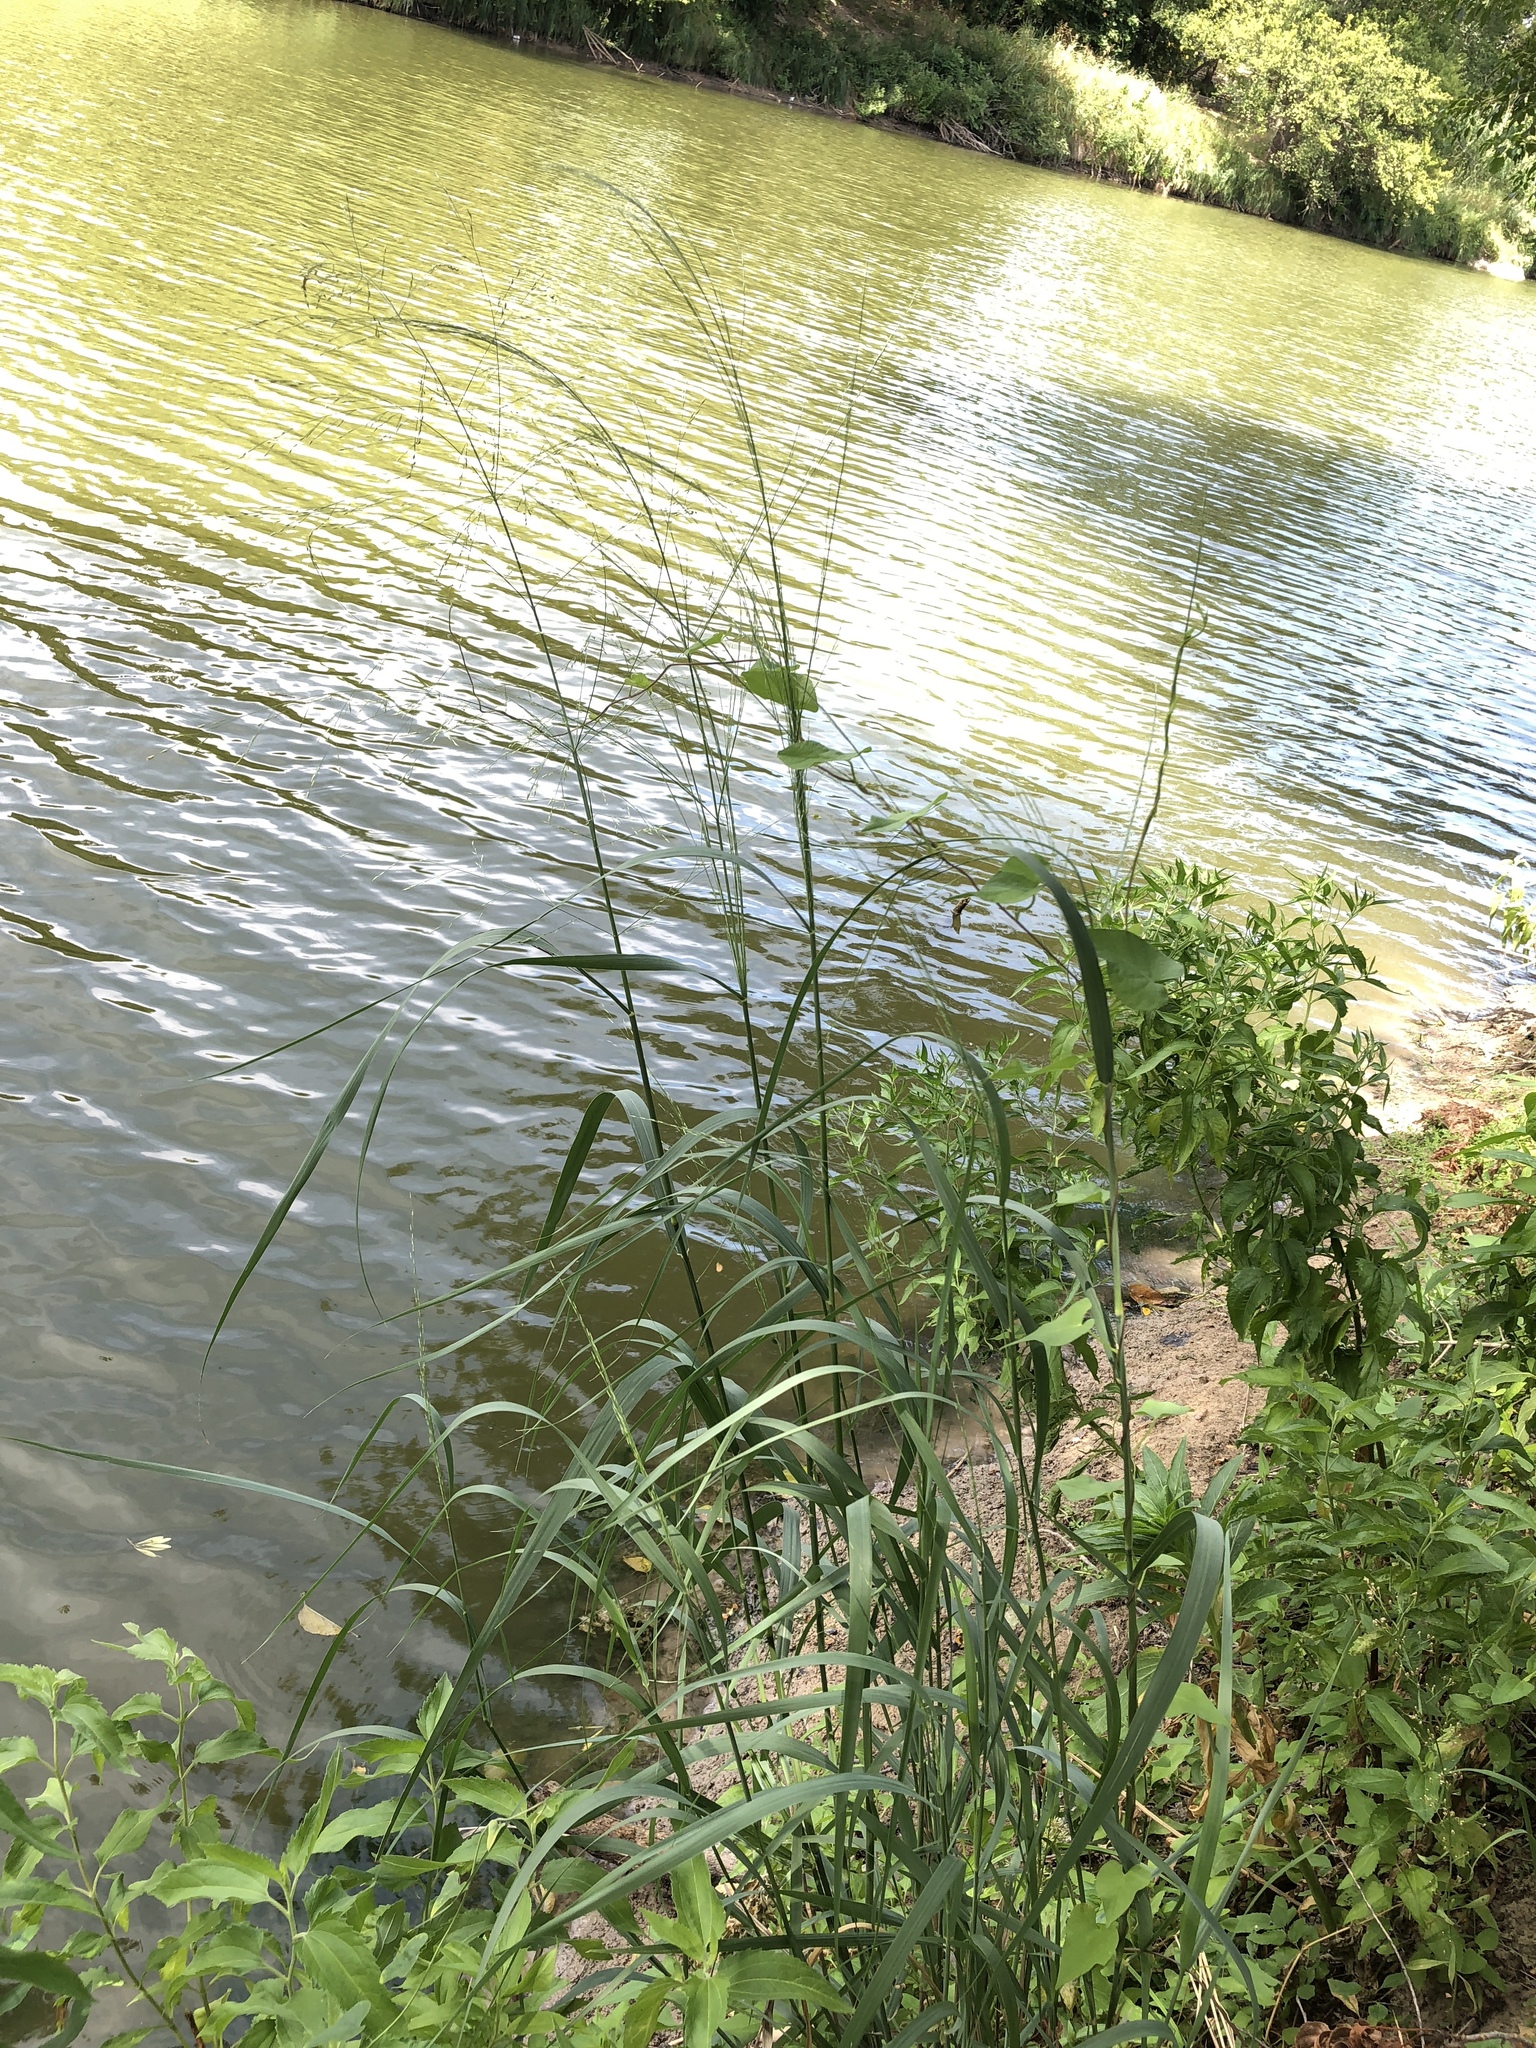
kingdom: Plantae
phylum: Tracheophyta
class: Liliopsida
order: Poales
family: Poaceae
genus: Panicum
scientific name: Panicum virgatum
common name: Switchgrass
